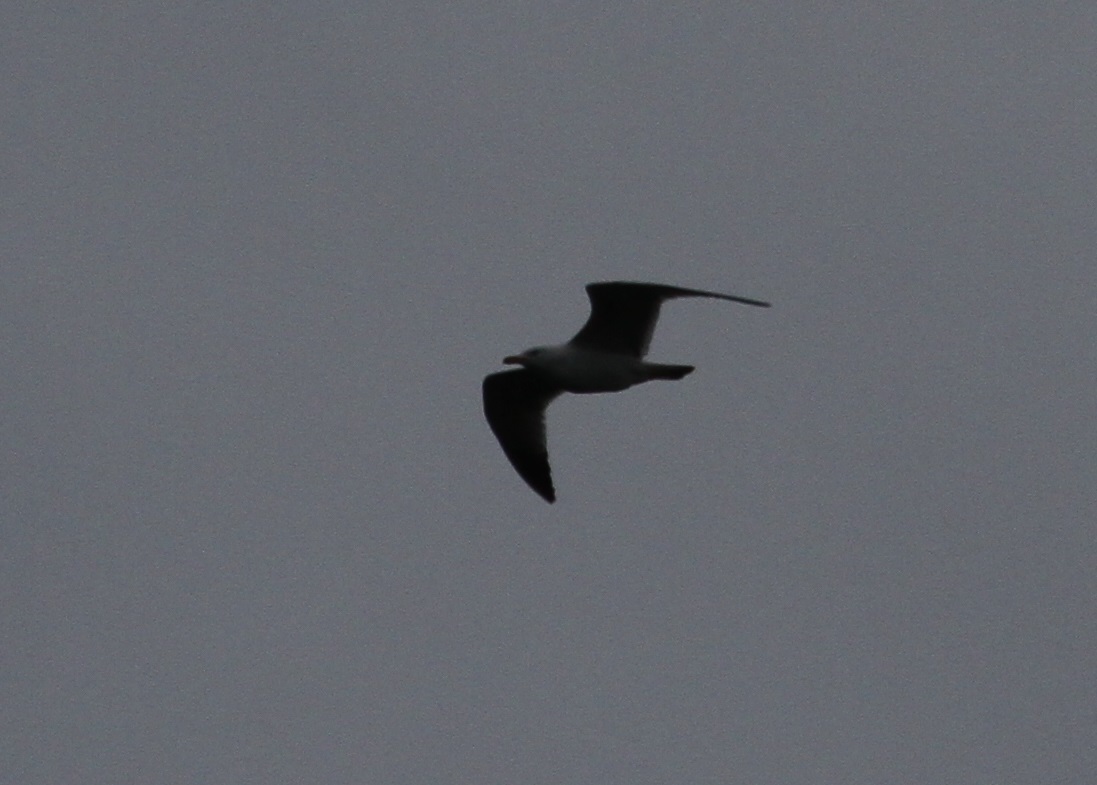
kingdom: Animalia
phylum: Chordata
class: Aves
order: Charadriiformes
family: Laridae
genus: Larus
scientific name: Larus michahellis
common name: Yellow-legged gull
